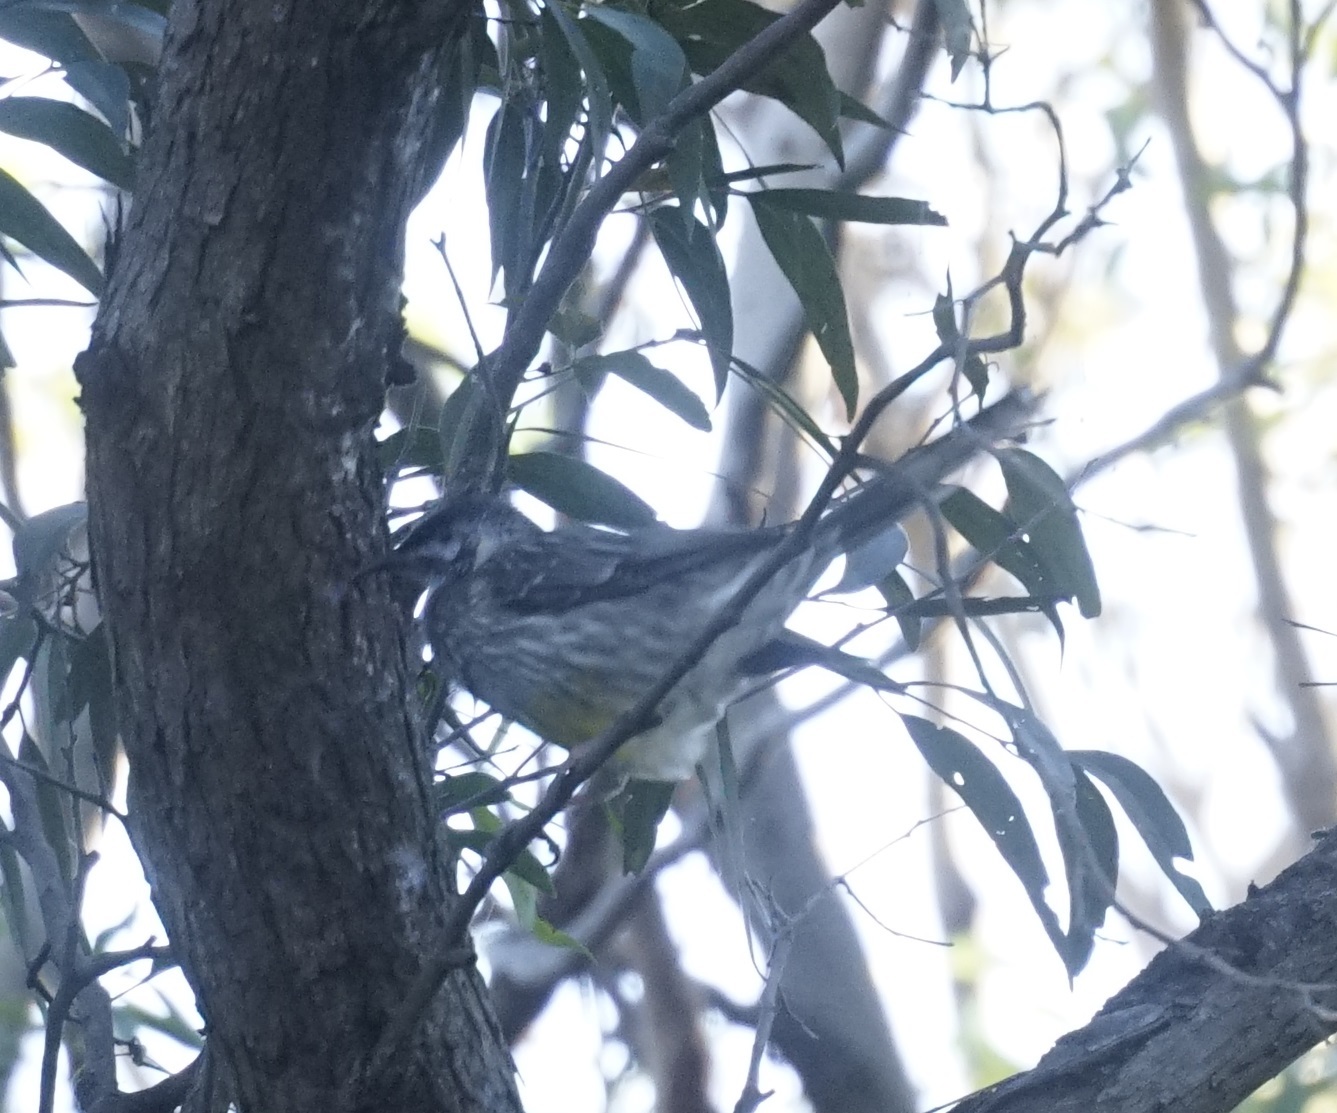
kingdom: Animalia
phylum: Chordata
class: Aves
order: Passeriformes
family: Meliphagidae
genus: Anthochaera
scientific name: Anthochaera carunculata
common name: Red wattlebird
